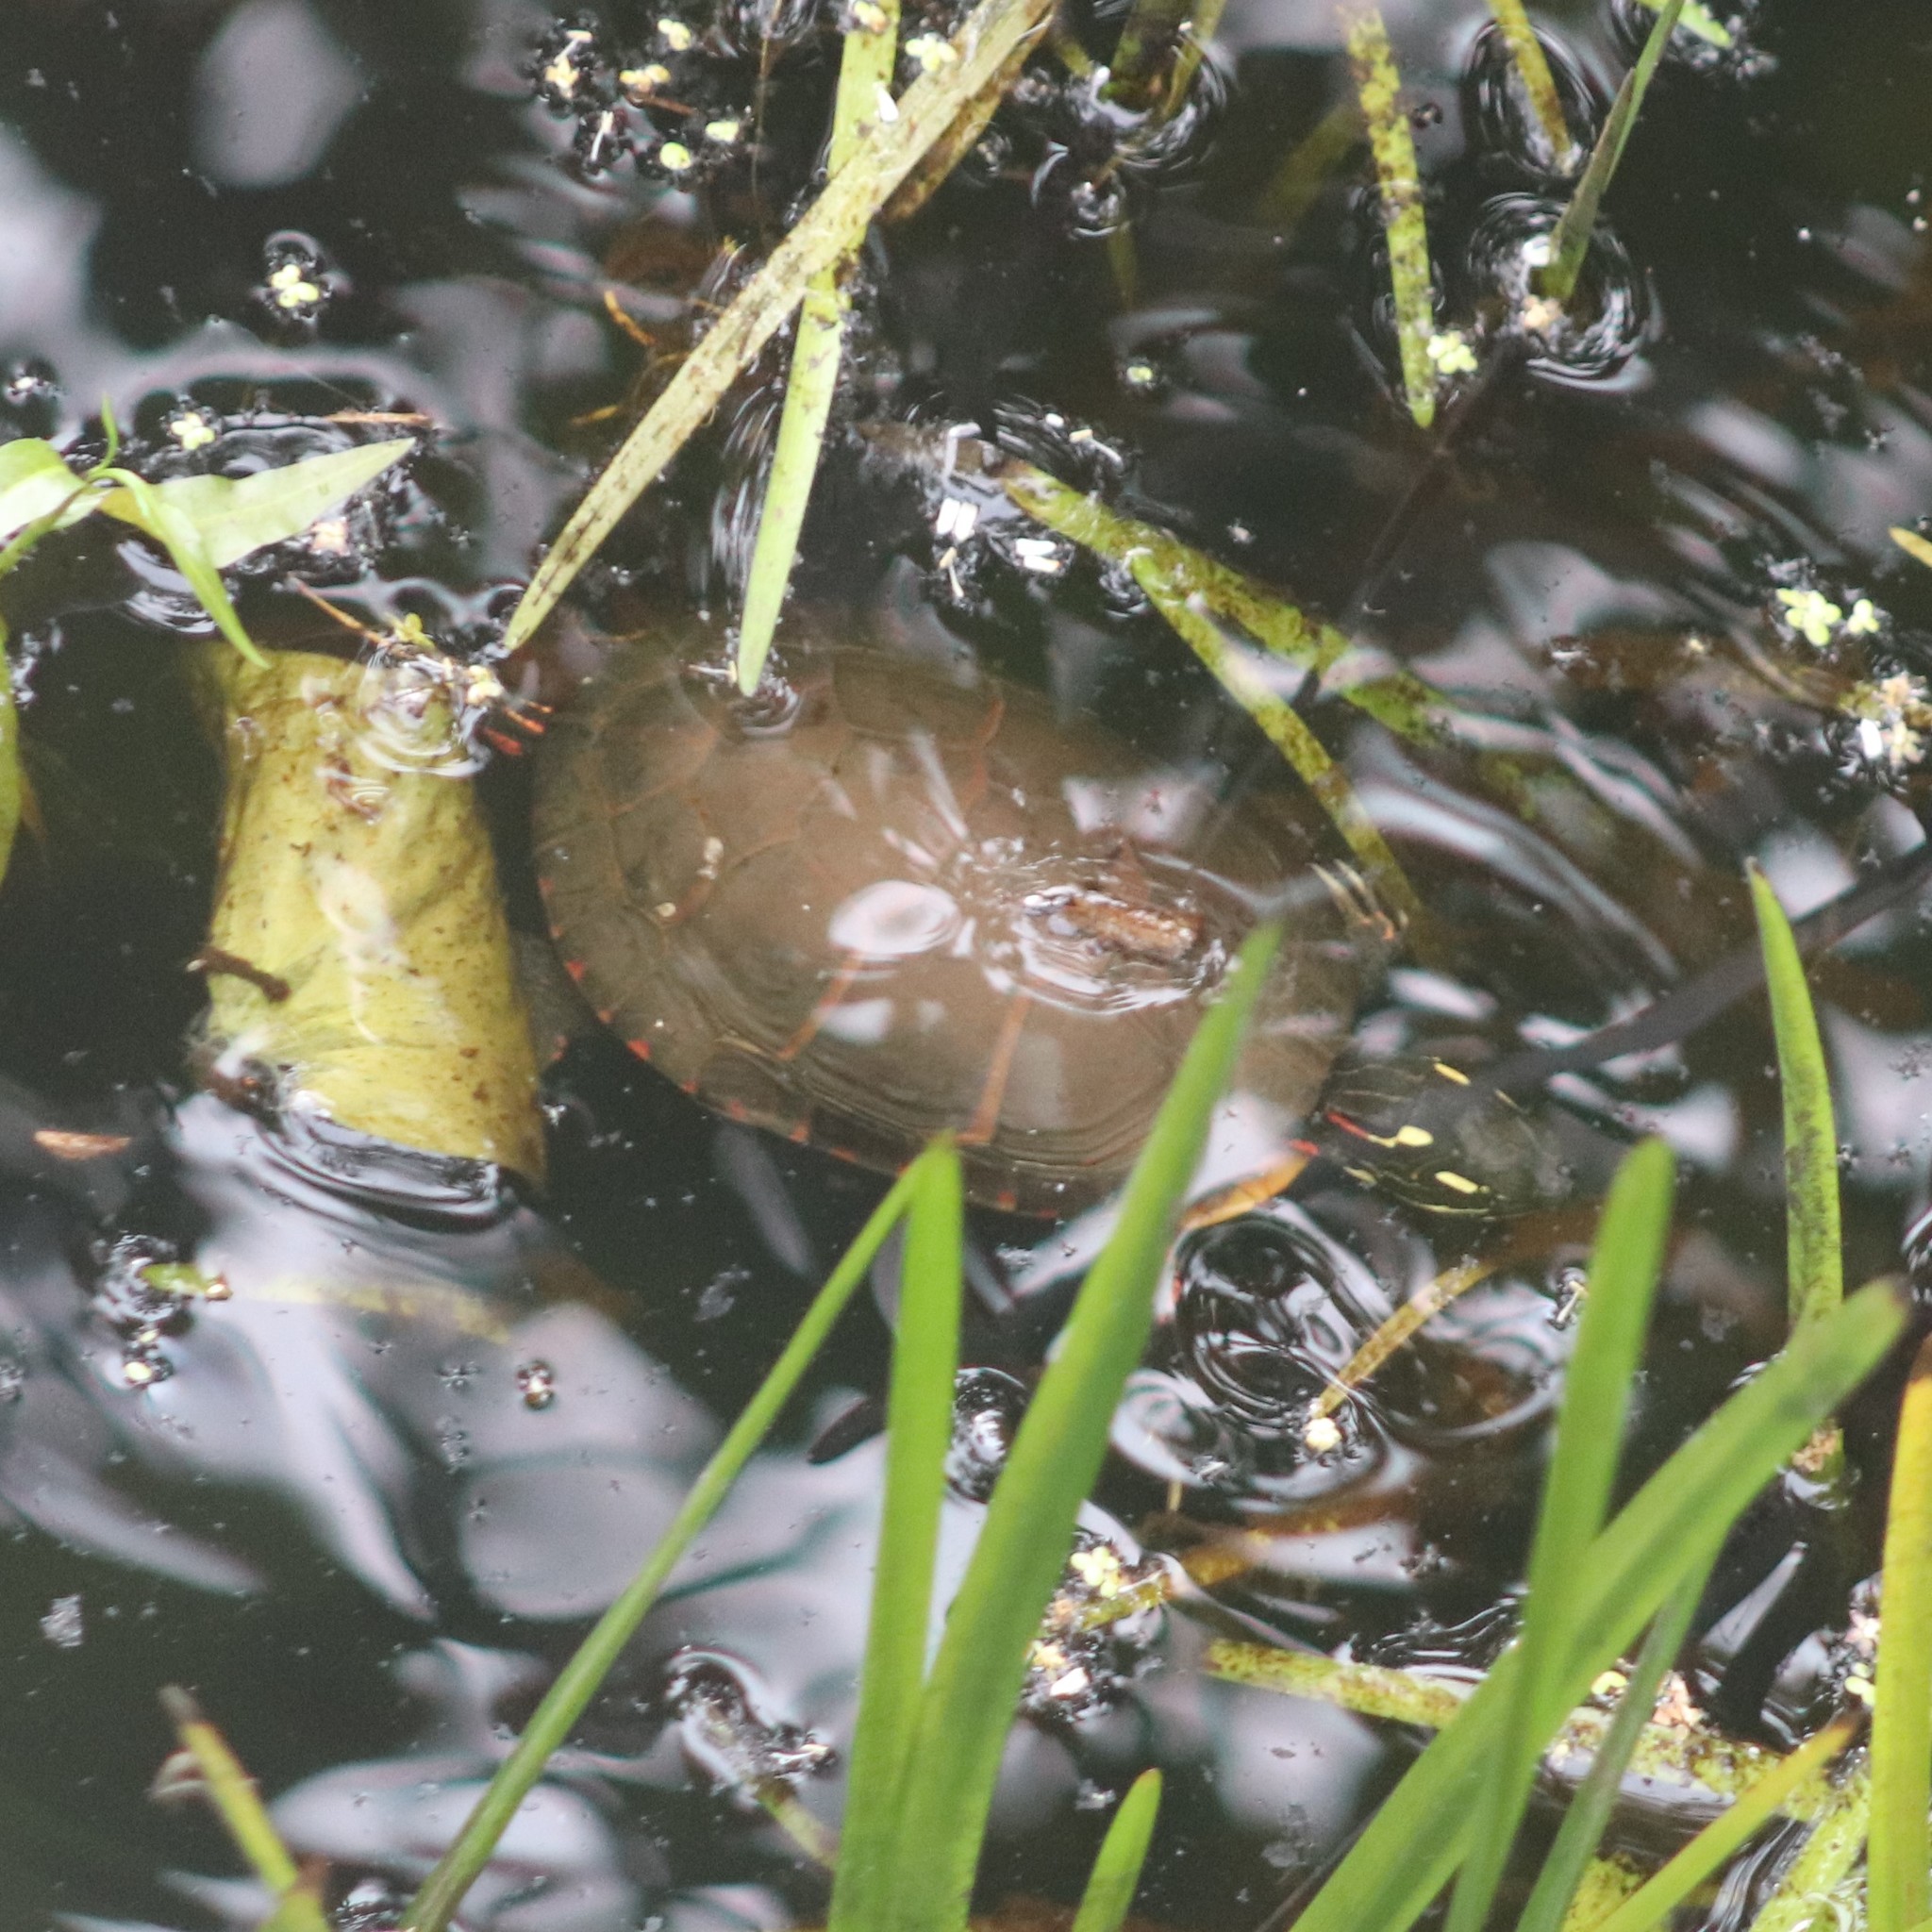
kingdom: Animalia
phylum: Chordata
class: Testudines
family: Emydidae
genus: Chrysemys
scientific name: Chrysemys picta
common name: Painted turtle
